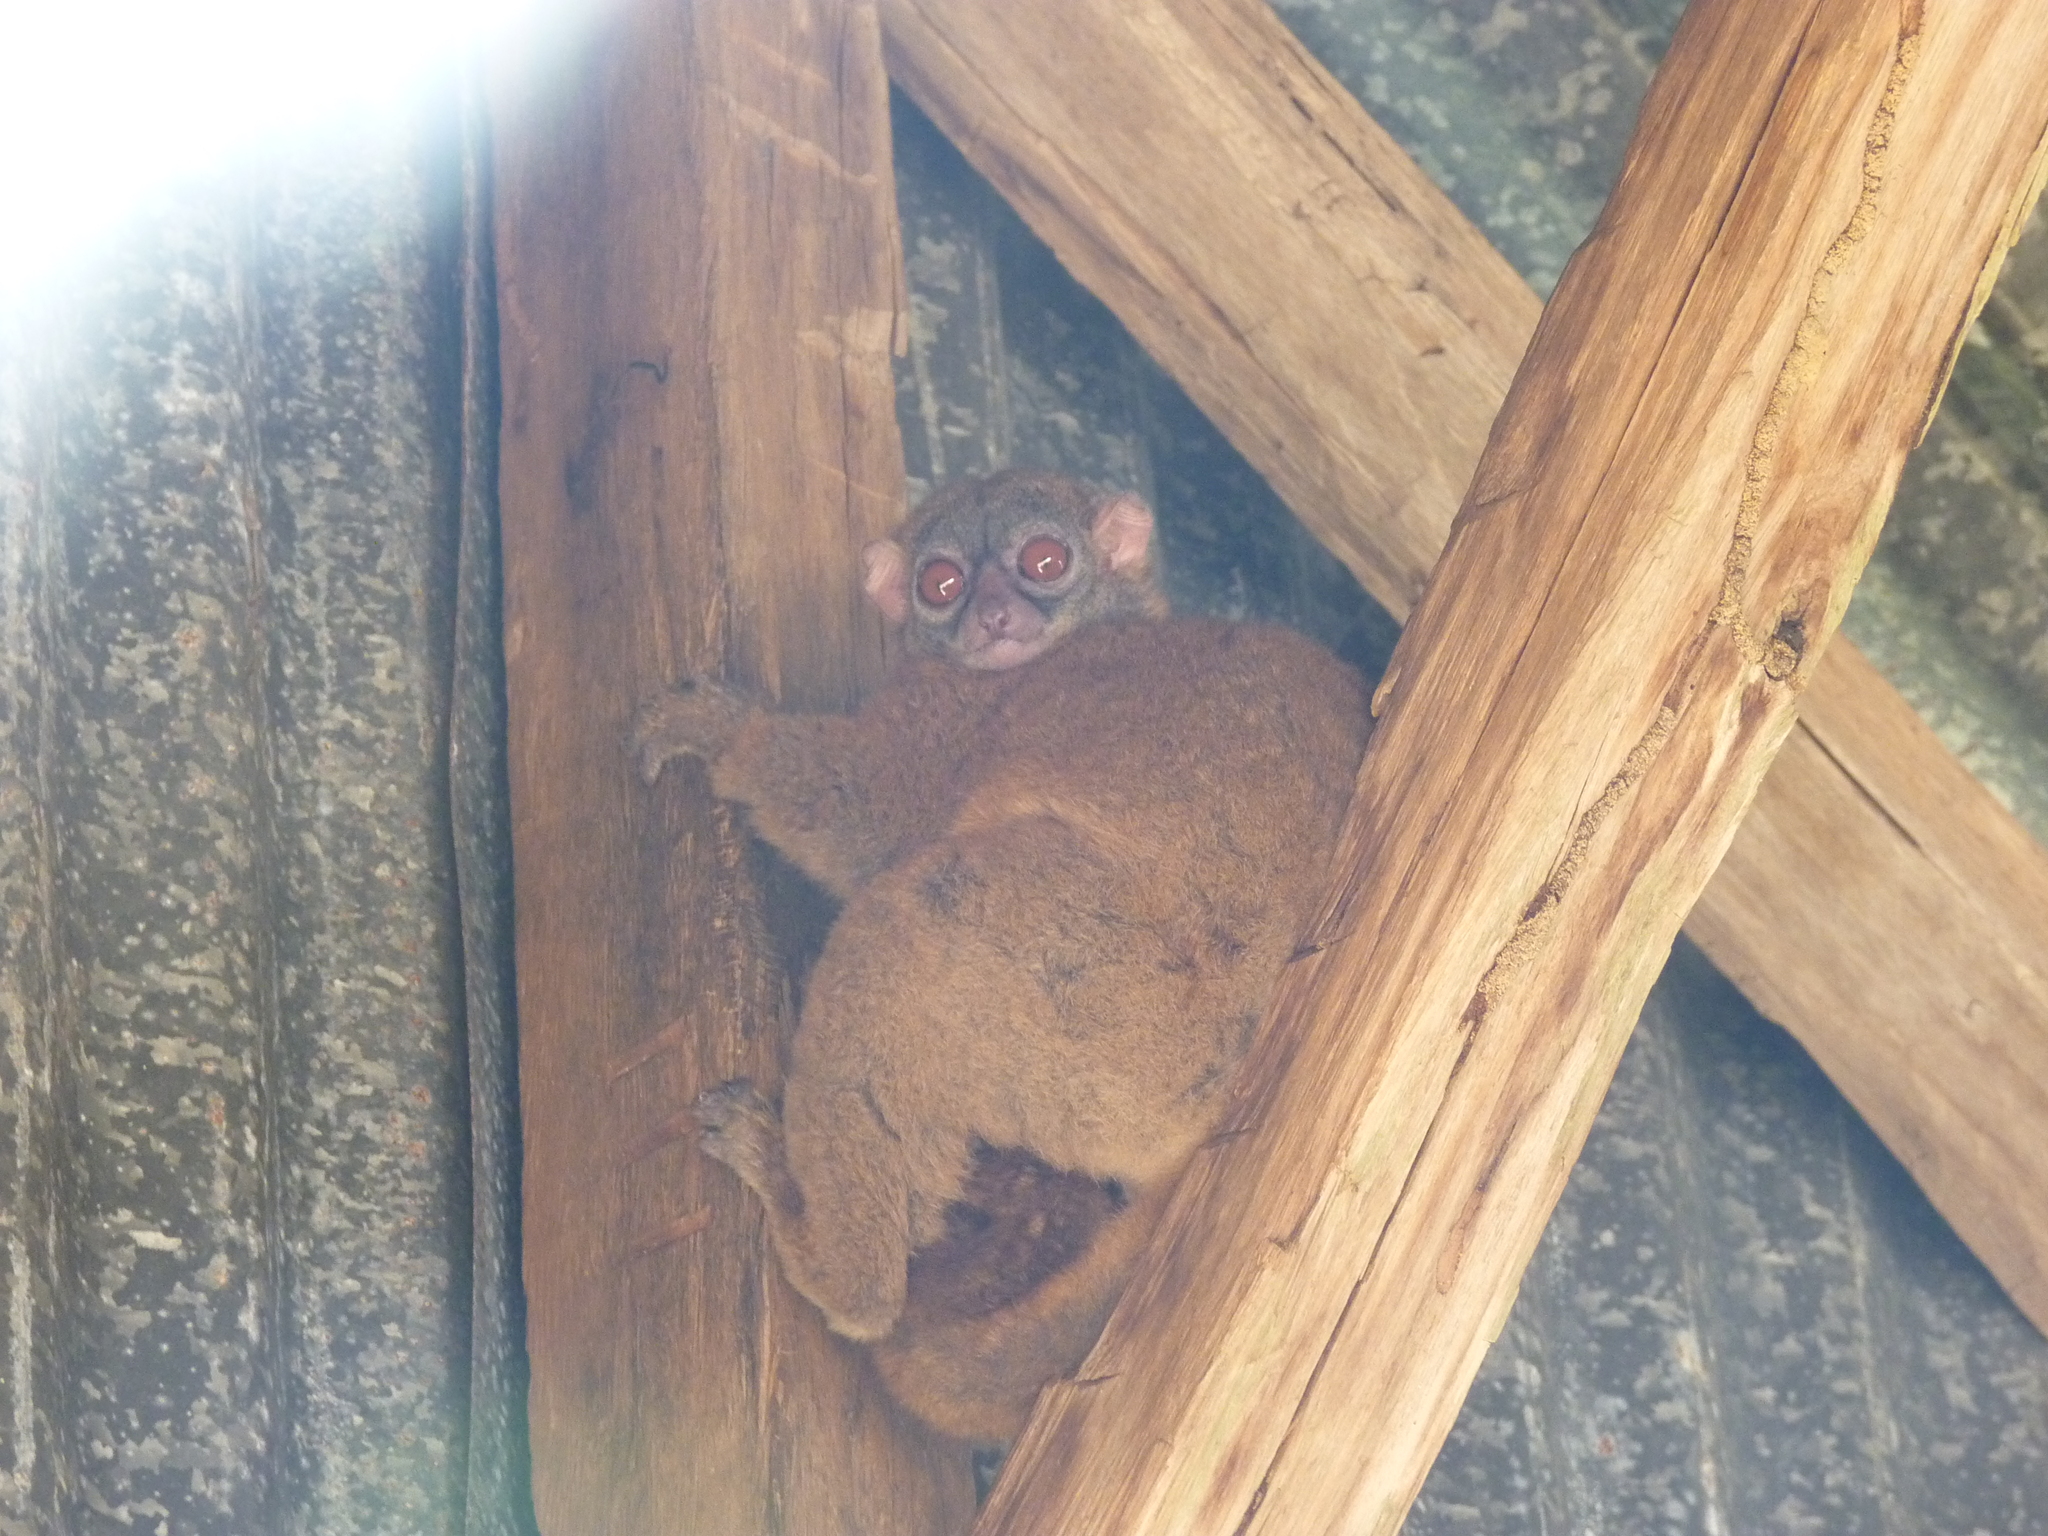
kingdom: Animalia
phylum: Chordata
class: Mammalia
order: Primates
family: Lepilemuridae
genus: Lepilemur
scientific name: Lepilemur tymerlachsoni
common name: Nosy be sportive lemur
